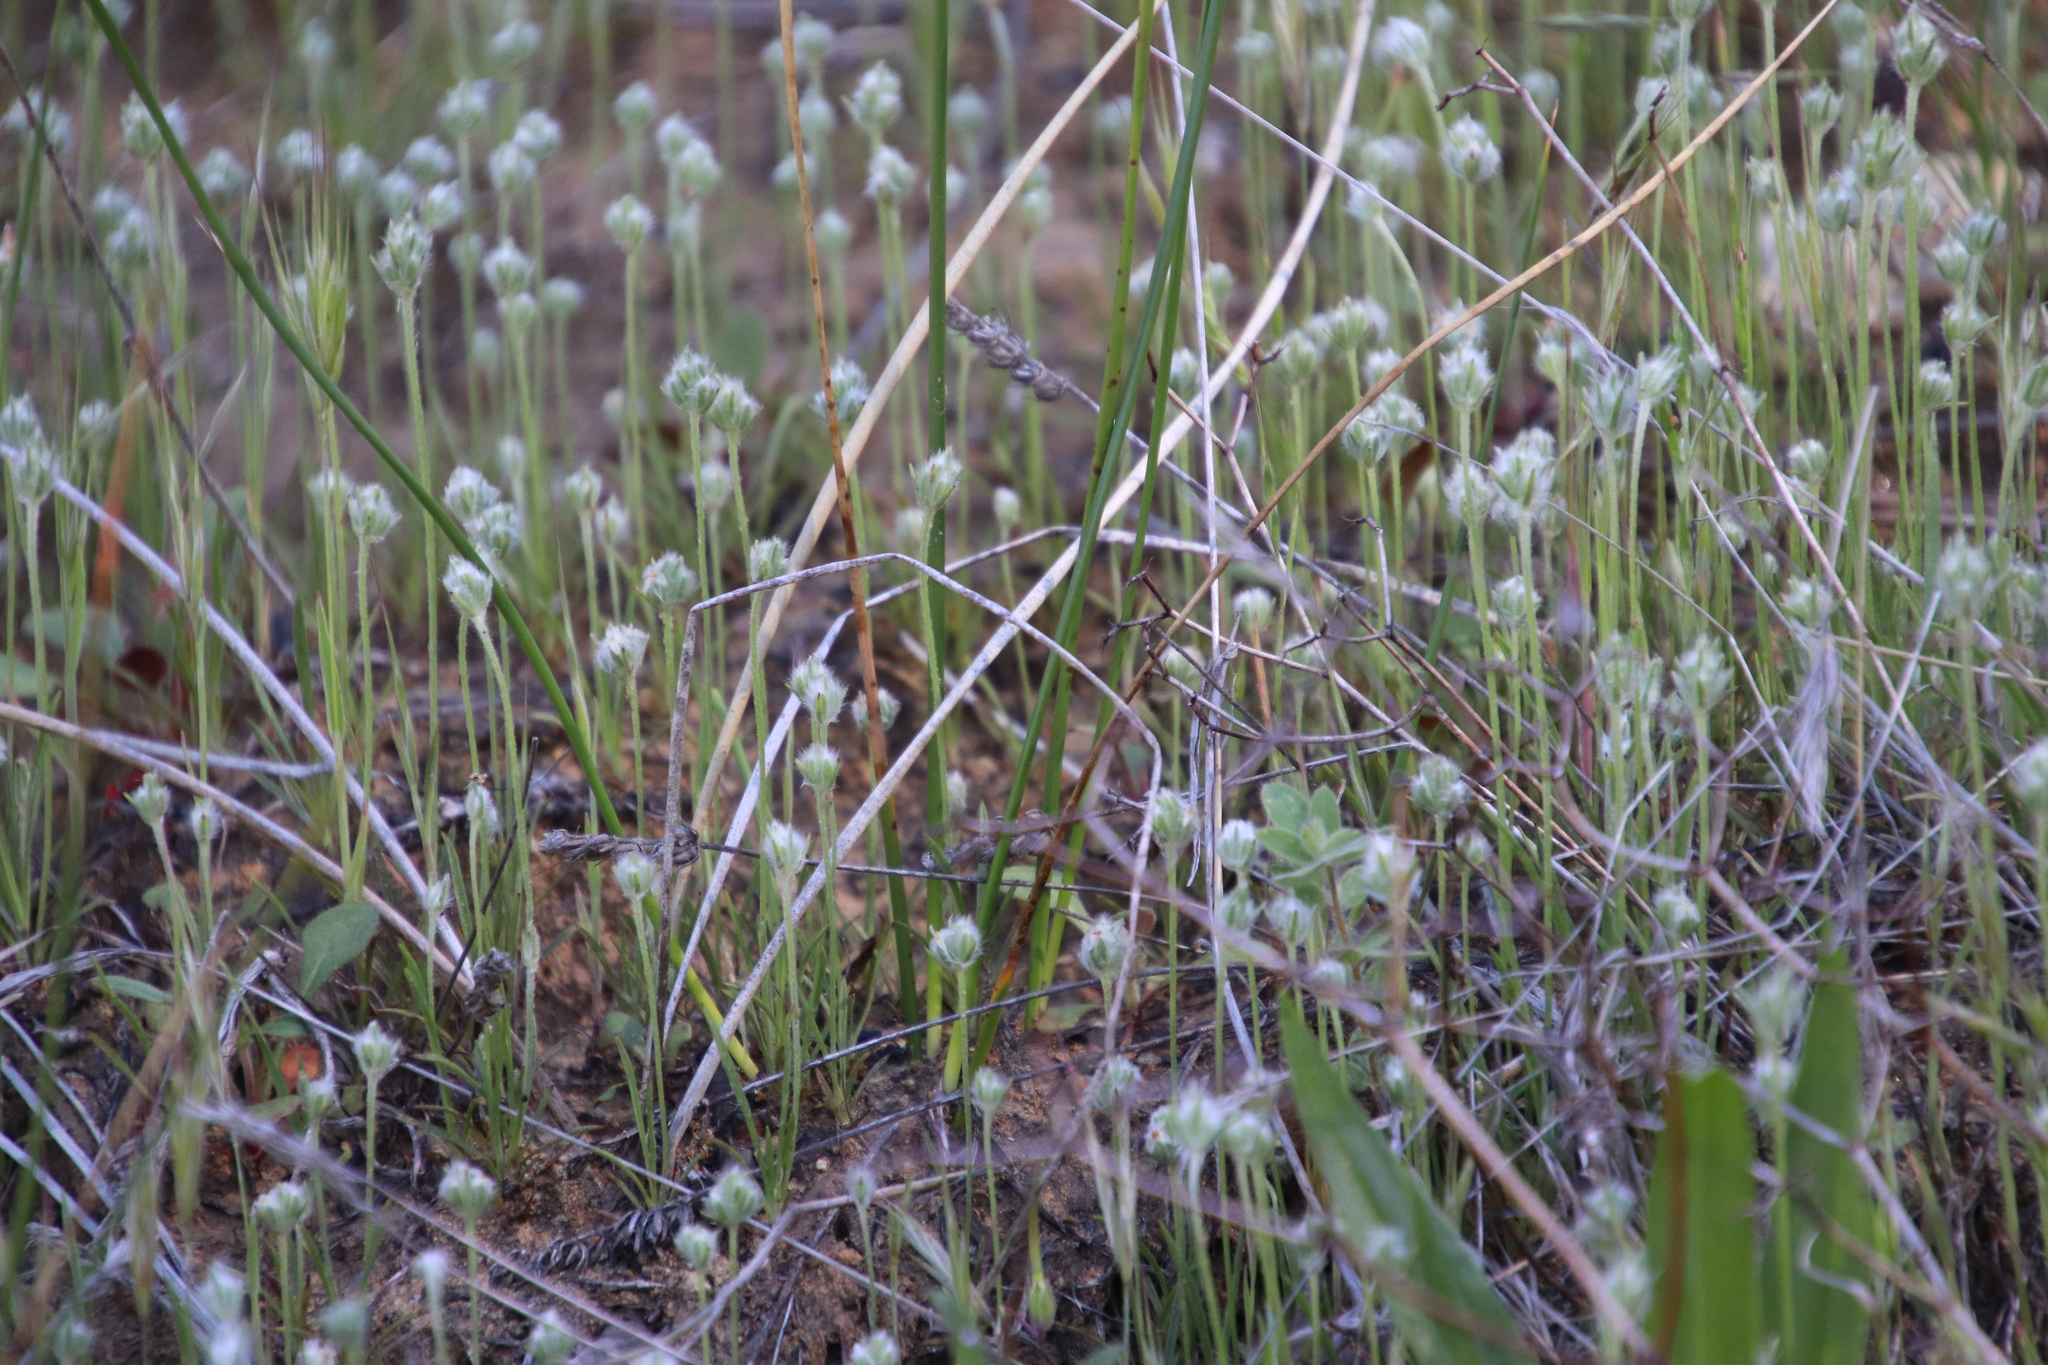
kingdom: Plantae
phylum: Tracheophyta
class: Magnoliopsida
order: Lamiales
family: Plantaginaceae
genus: Plantago
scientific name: Plantago patagonica
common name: Patagonia indian-wheat
